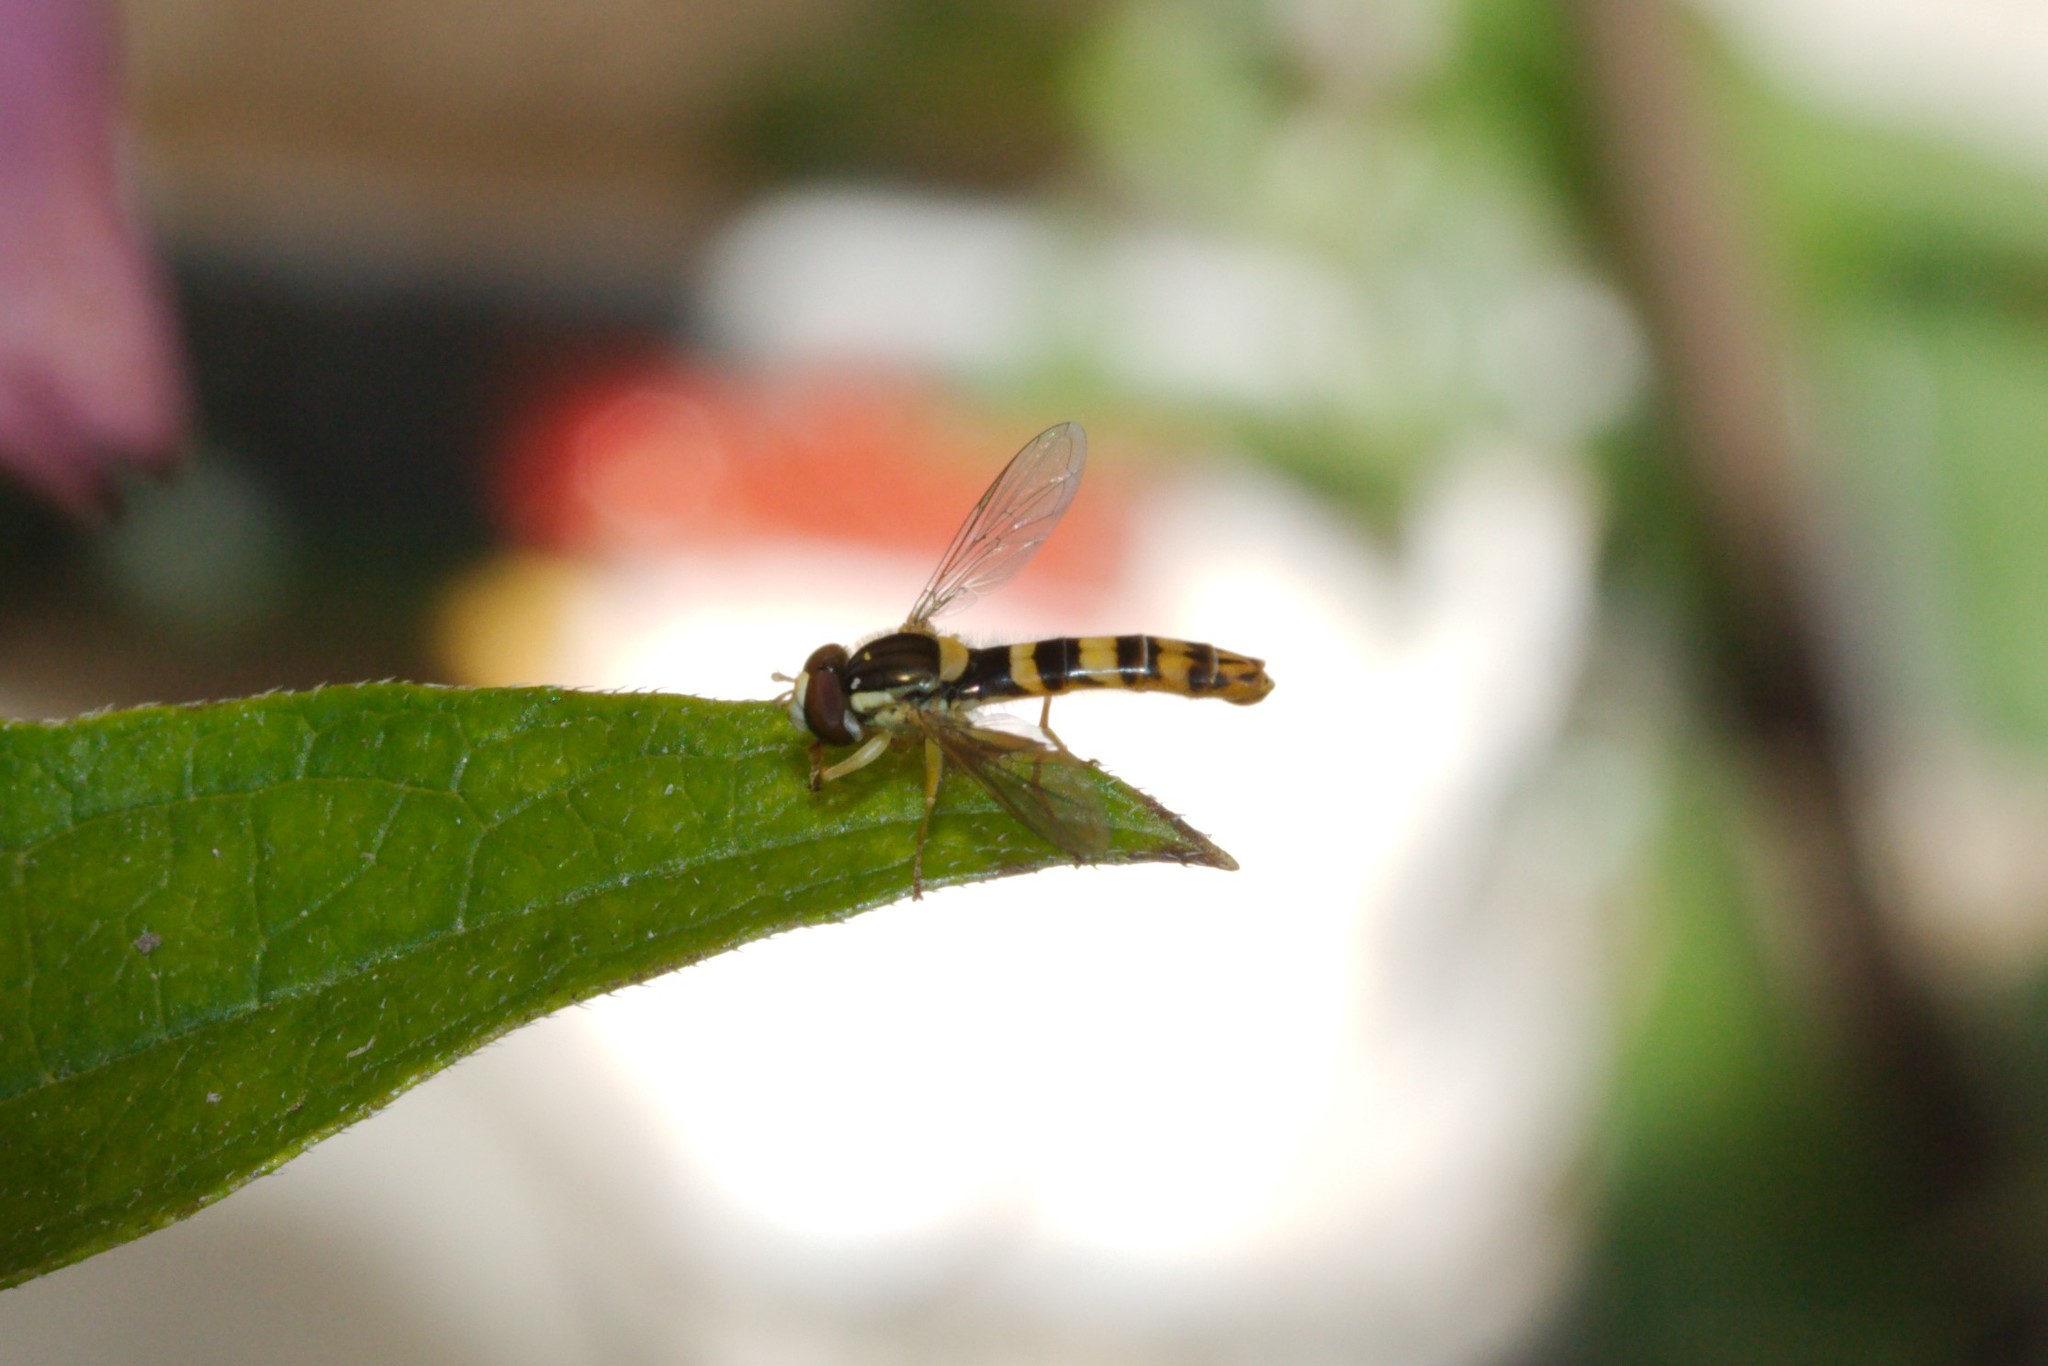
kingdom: Animalia
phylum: Arthropoda
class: Insecta
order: Diptera
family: Syrphidae
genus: Sphaerophoria
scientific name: Sphaerophoria scripta
